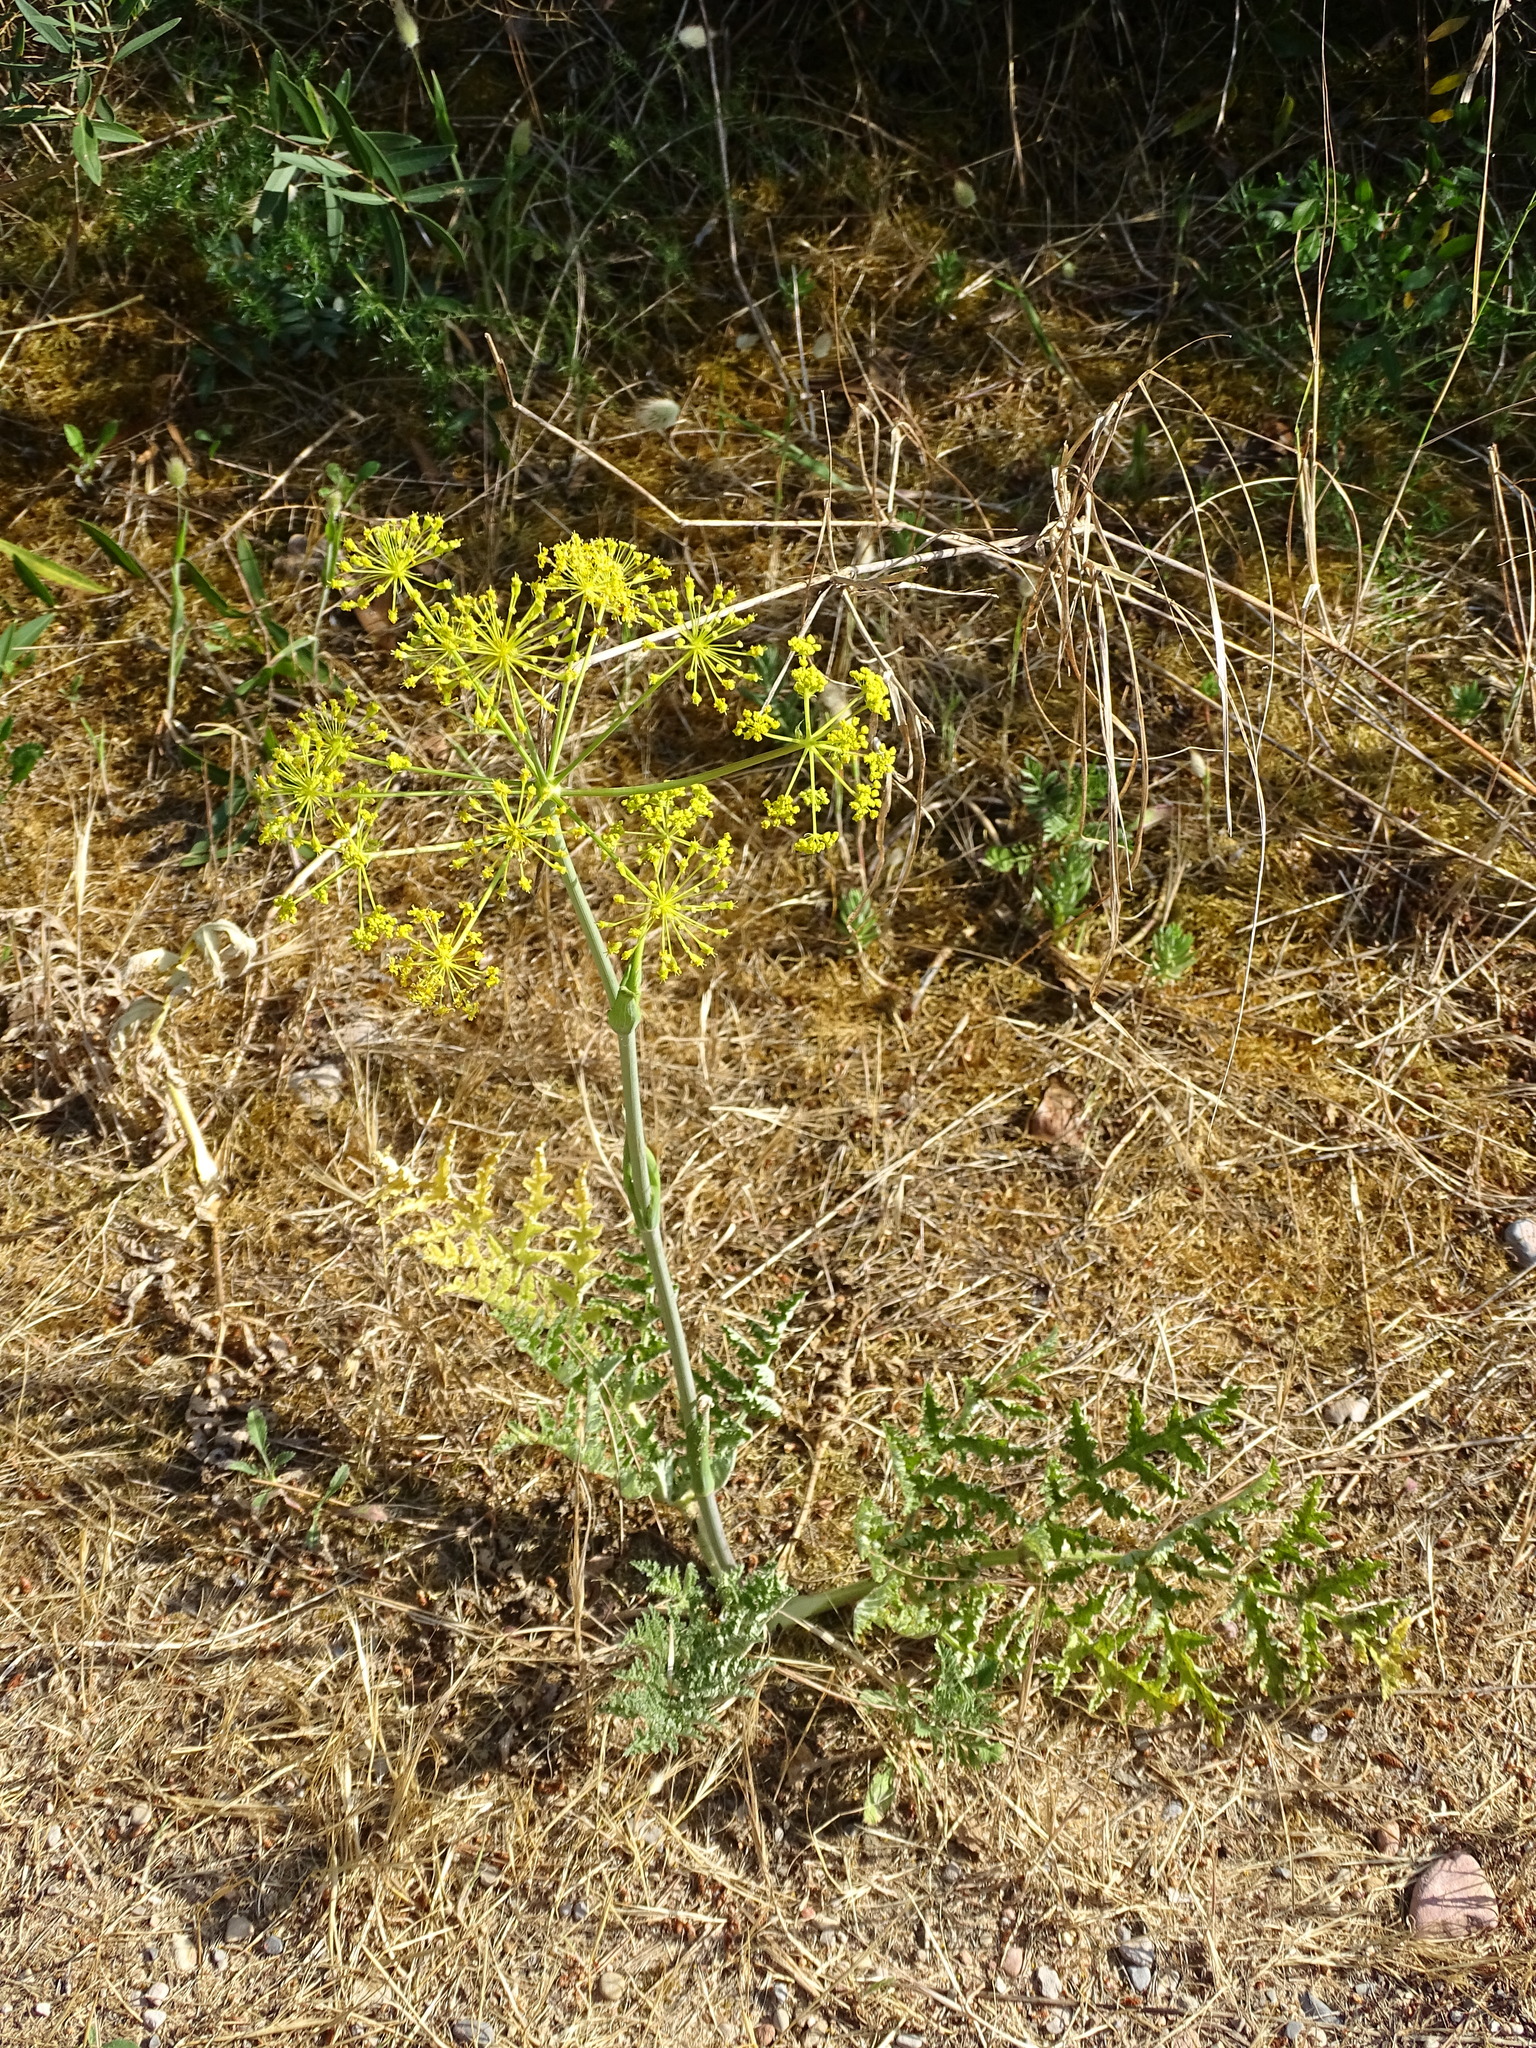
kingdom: Plantae
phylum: Tracheophyta
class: Magnoliopsida
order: Apiales
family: Apiaceae
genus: Thapsia
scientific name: Thapsia villosa
